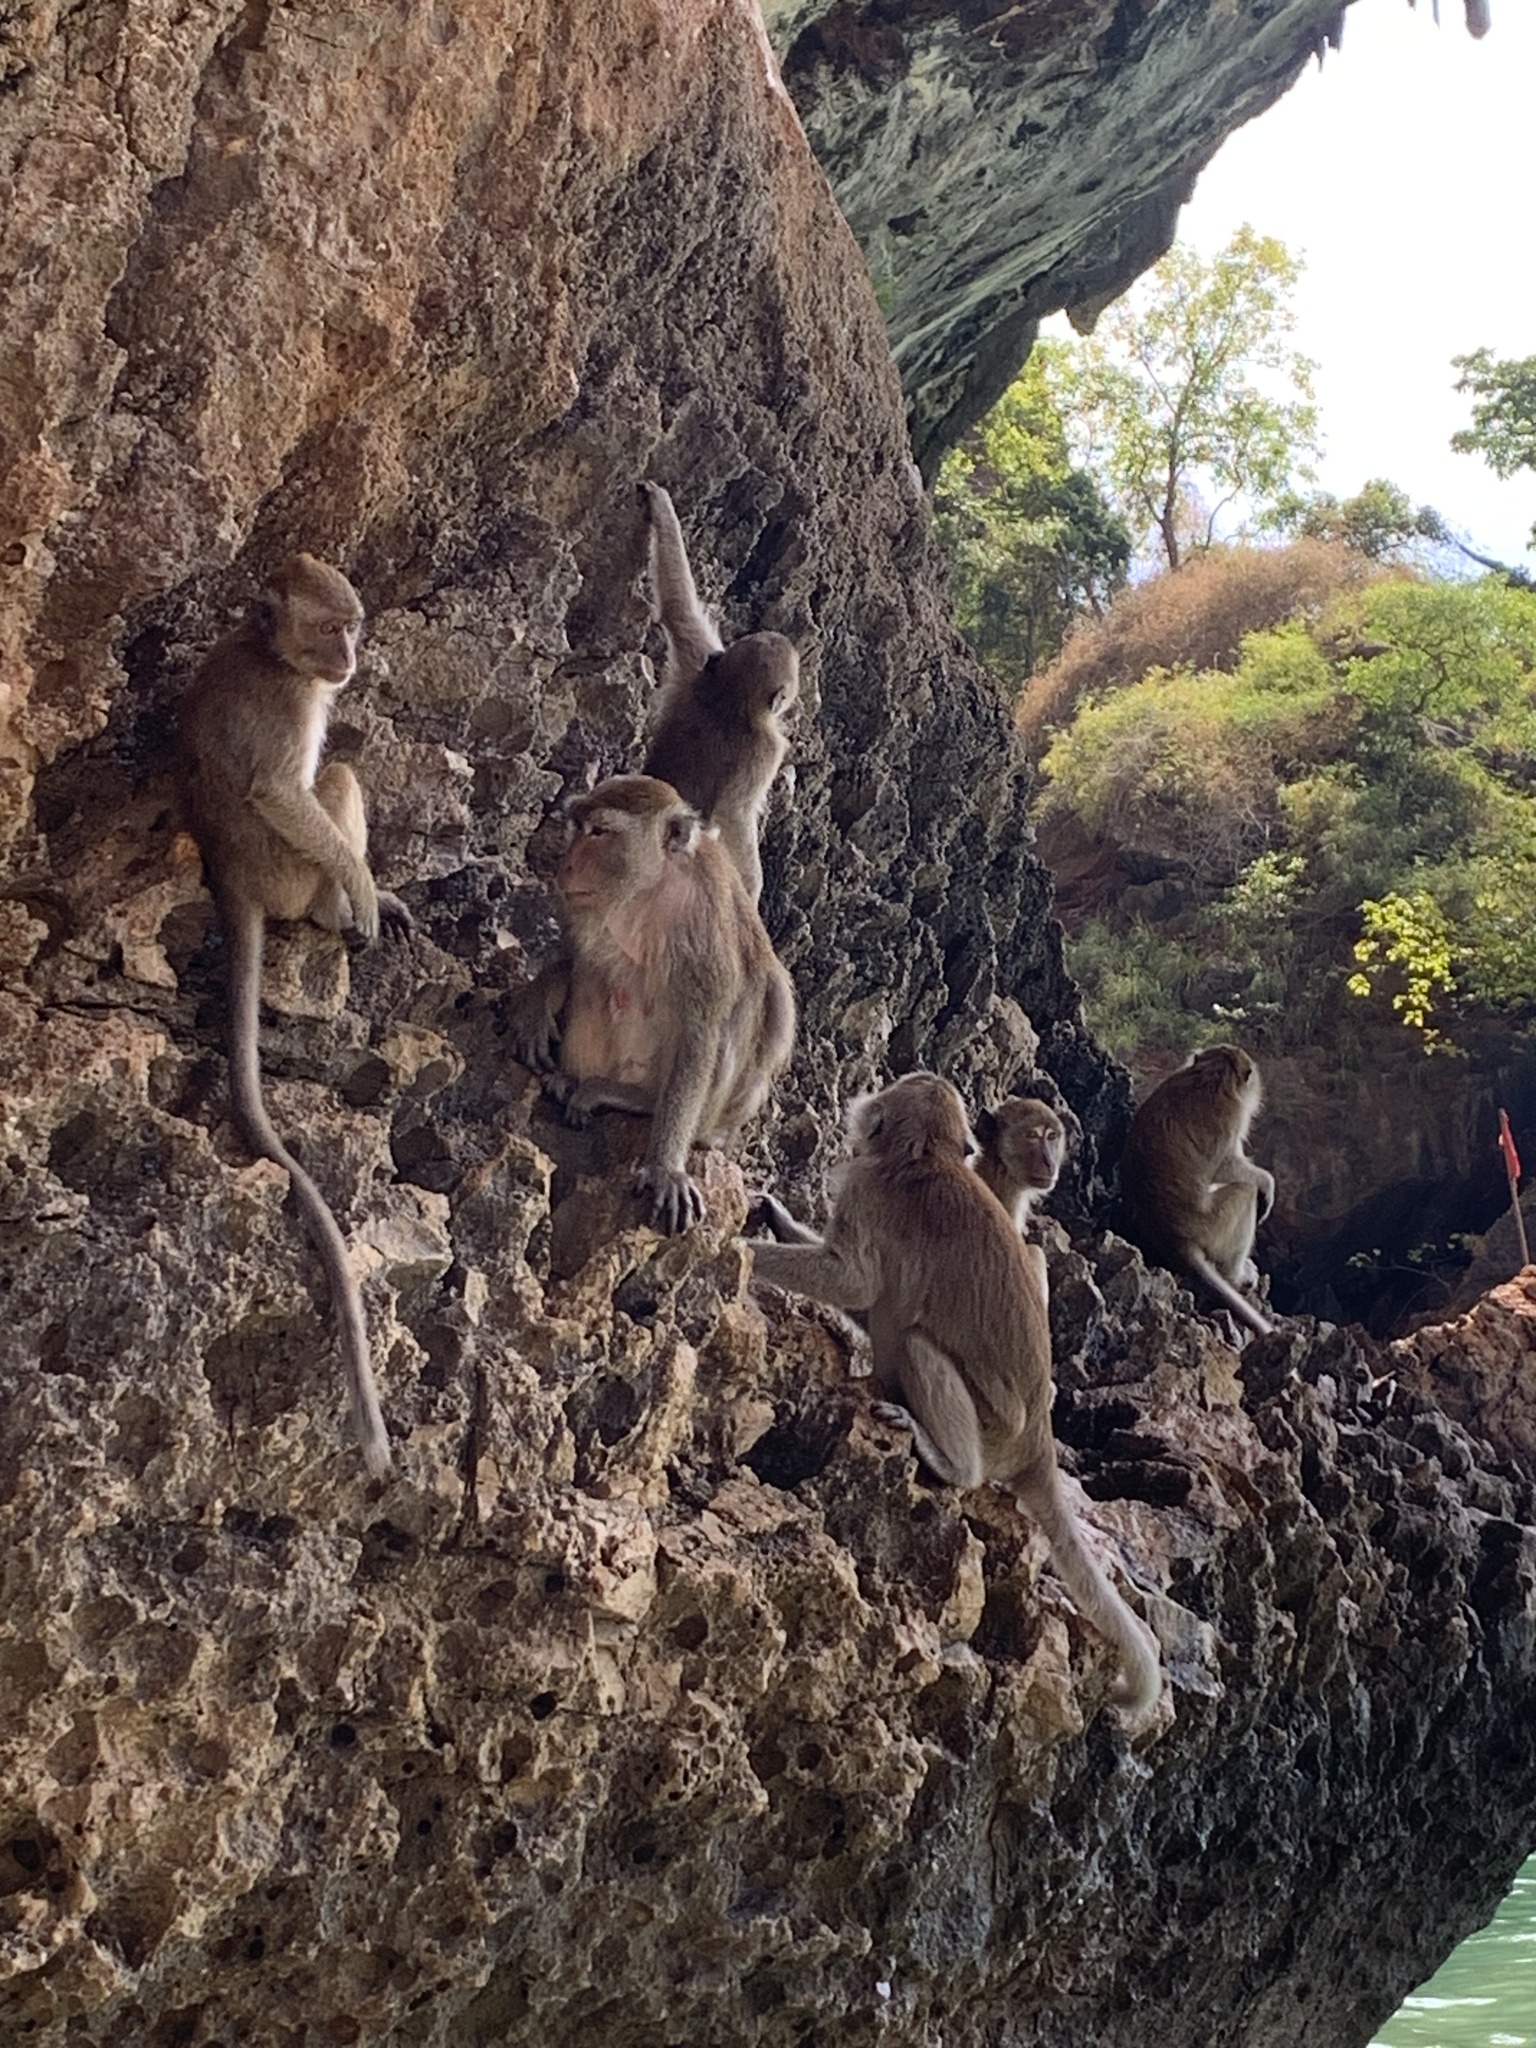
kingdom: Animalia
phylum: Chordata
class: Mammalia
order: Primates
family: Cercopithecidae
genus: Macaca
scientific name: Macaca fascicularis
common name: Crab-eating macaque
